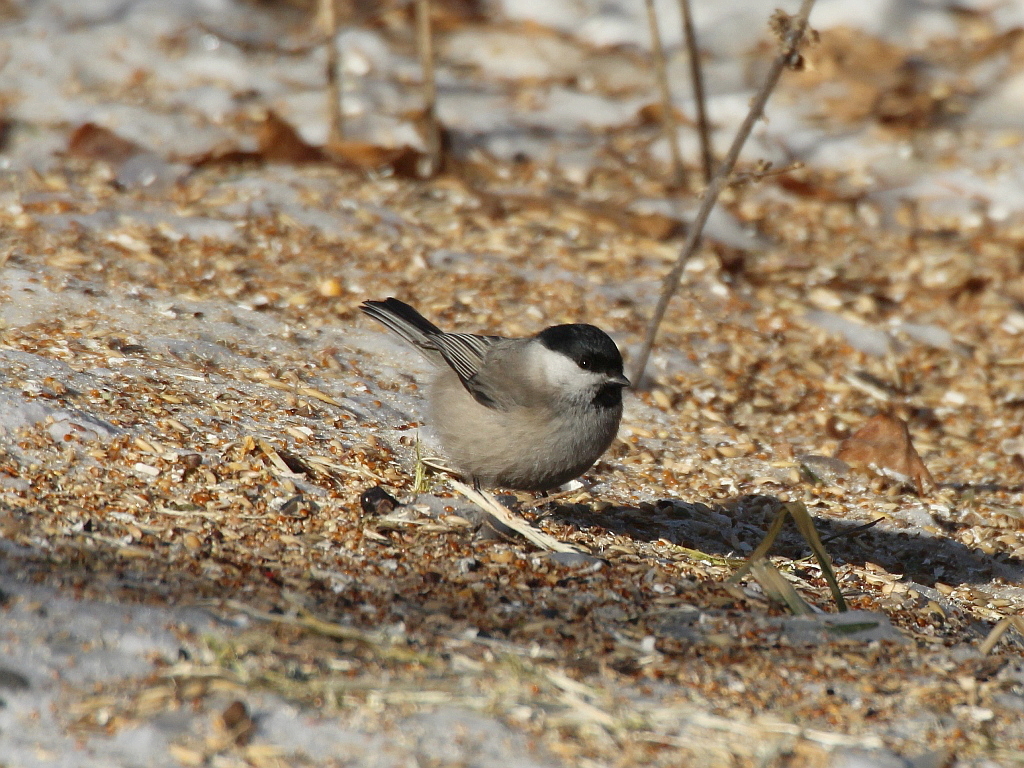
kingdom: Animalia
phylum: Chordata
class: Aves
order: Passeriformes
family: Paridae
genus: Poecile
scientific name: Poecile palustris
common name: Marsh tit
